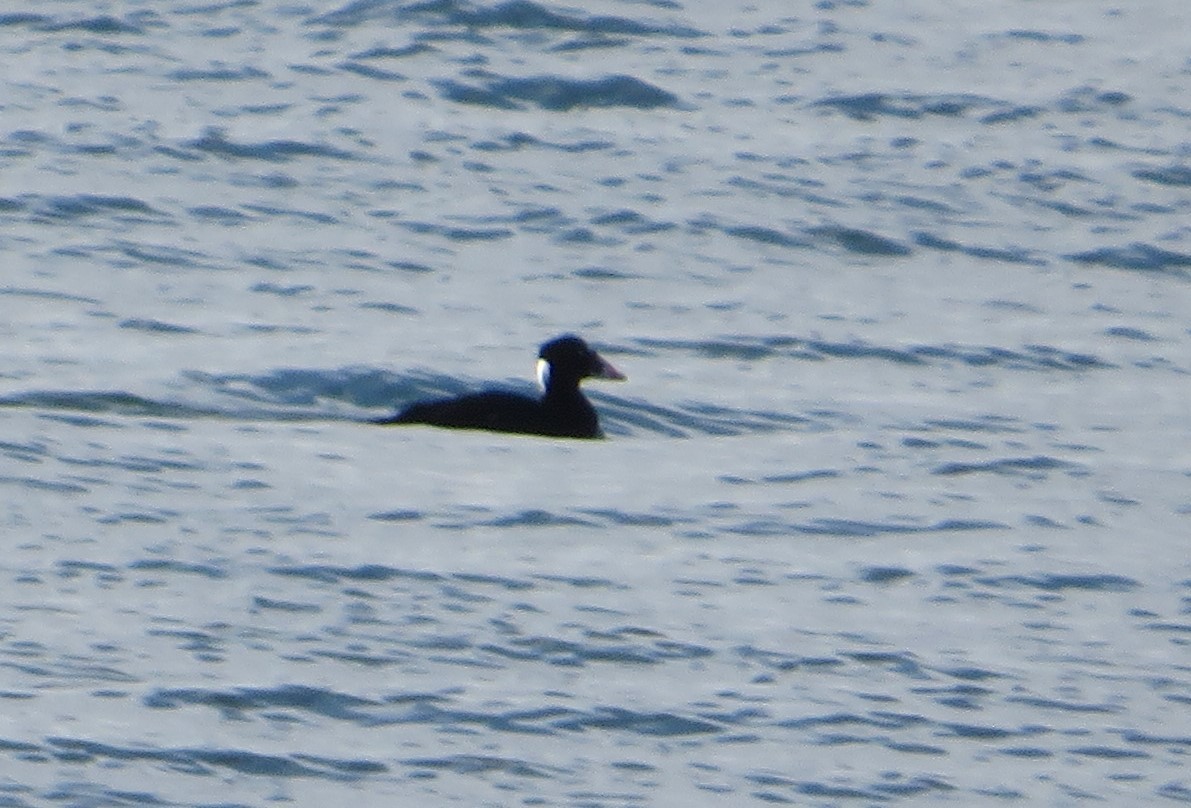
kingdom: Animalia
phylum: Chordata
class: Aves
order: Anseriformes
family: Anatidae
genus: Melanitta
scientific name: Melanitta perspicillata
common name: Surf scoter
